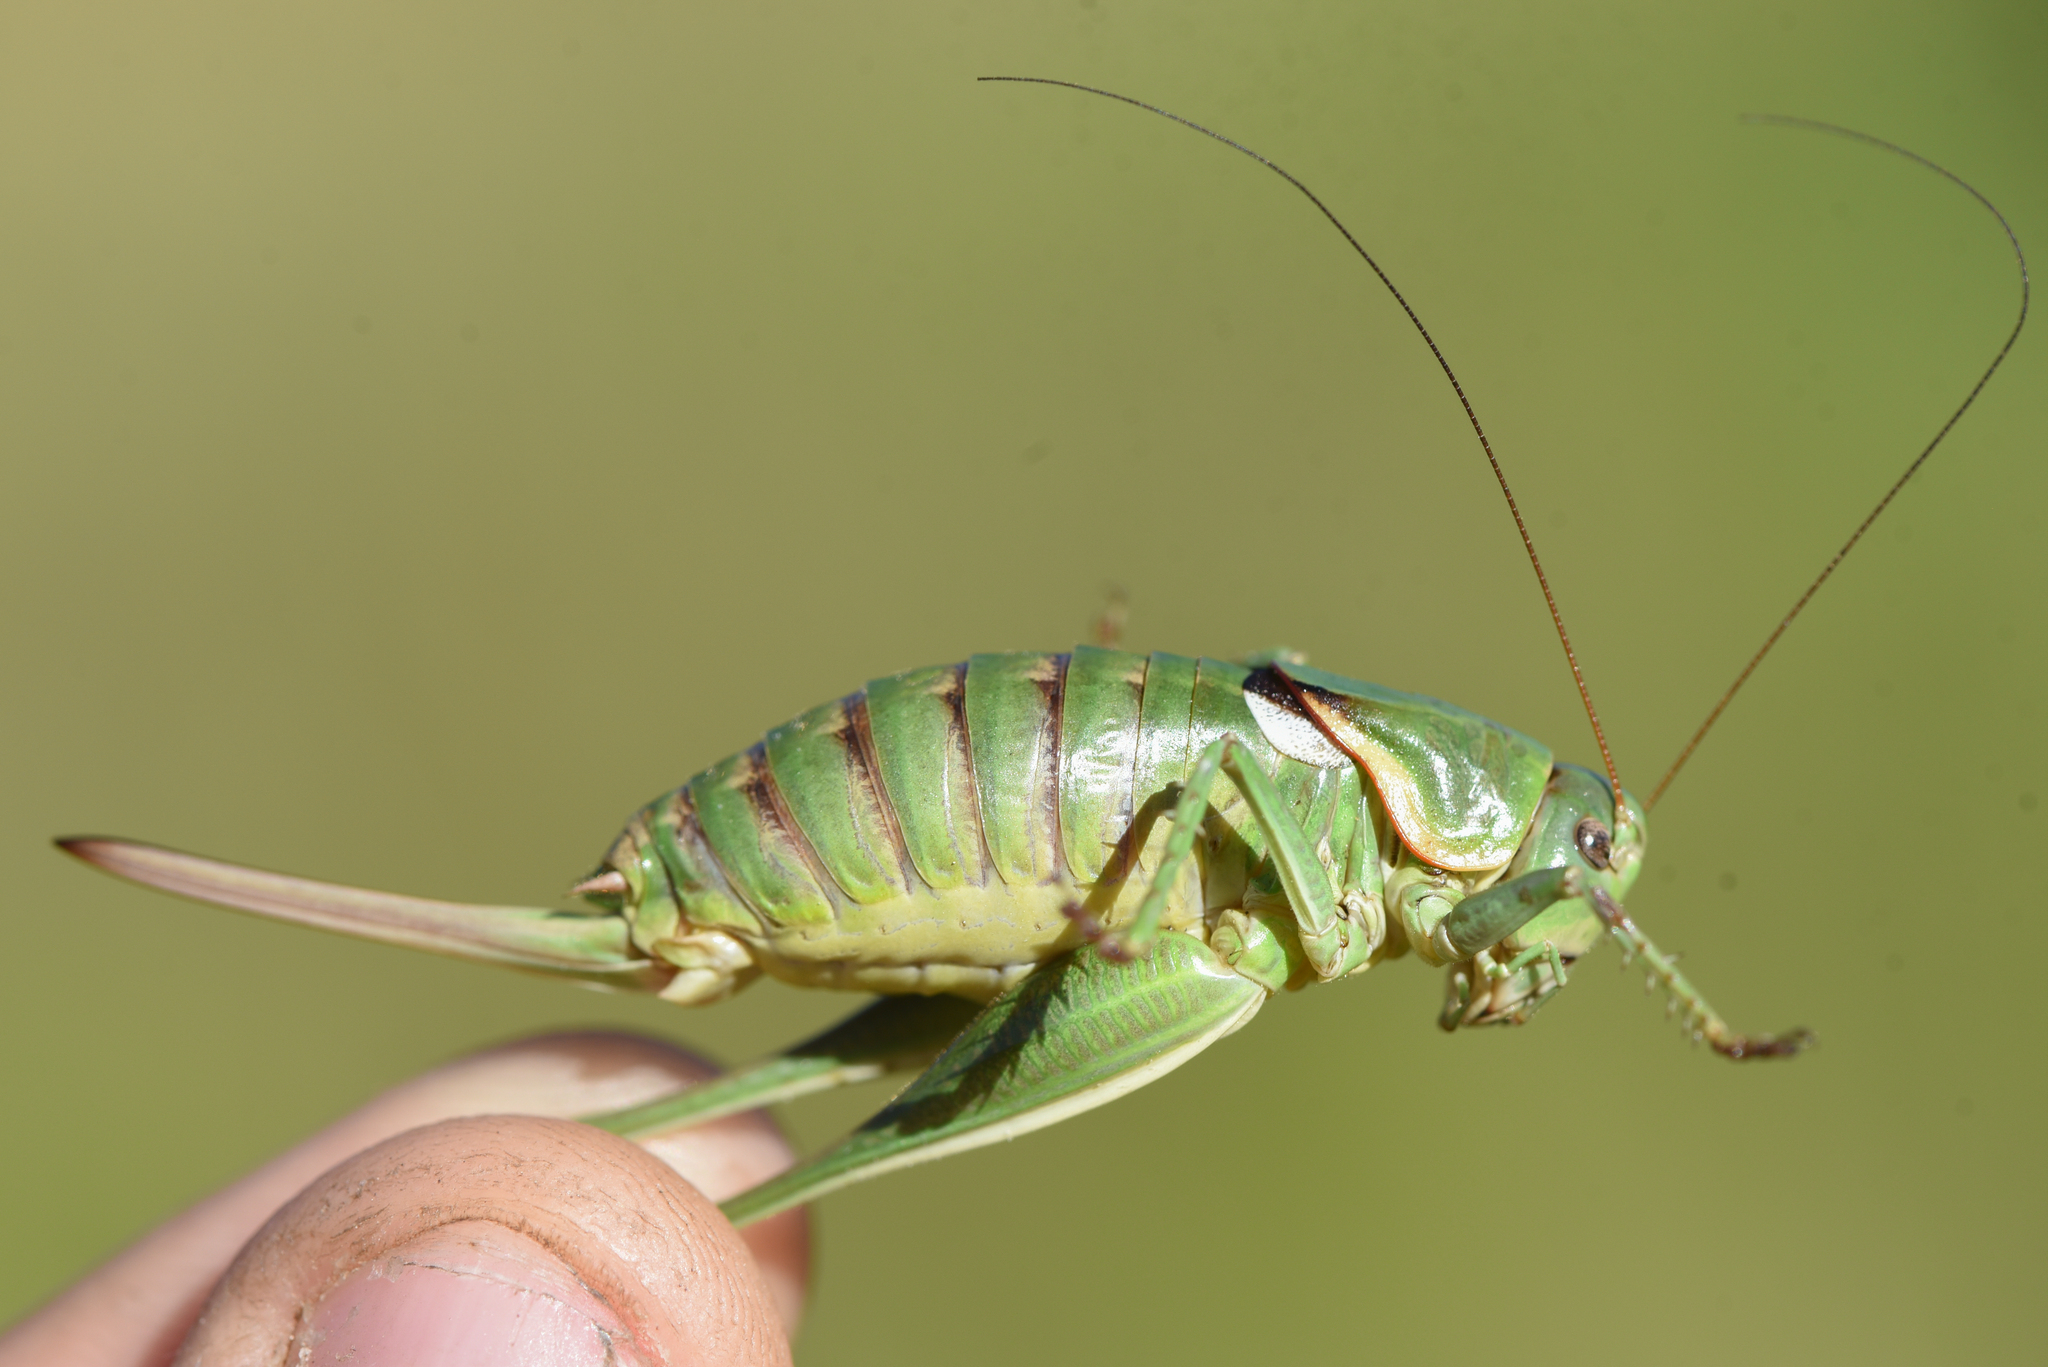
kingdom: Animalia
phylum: Arthropoda
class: Insecta
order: Orthoptera
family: Tettigoniidae
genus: Anabrus
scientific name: Anabrus longipes
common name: Long-legged anabrus
